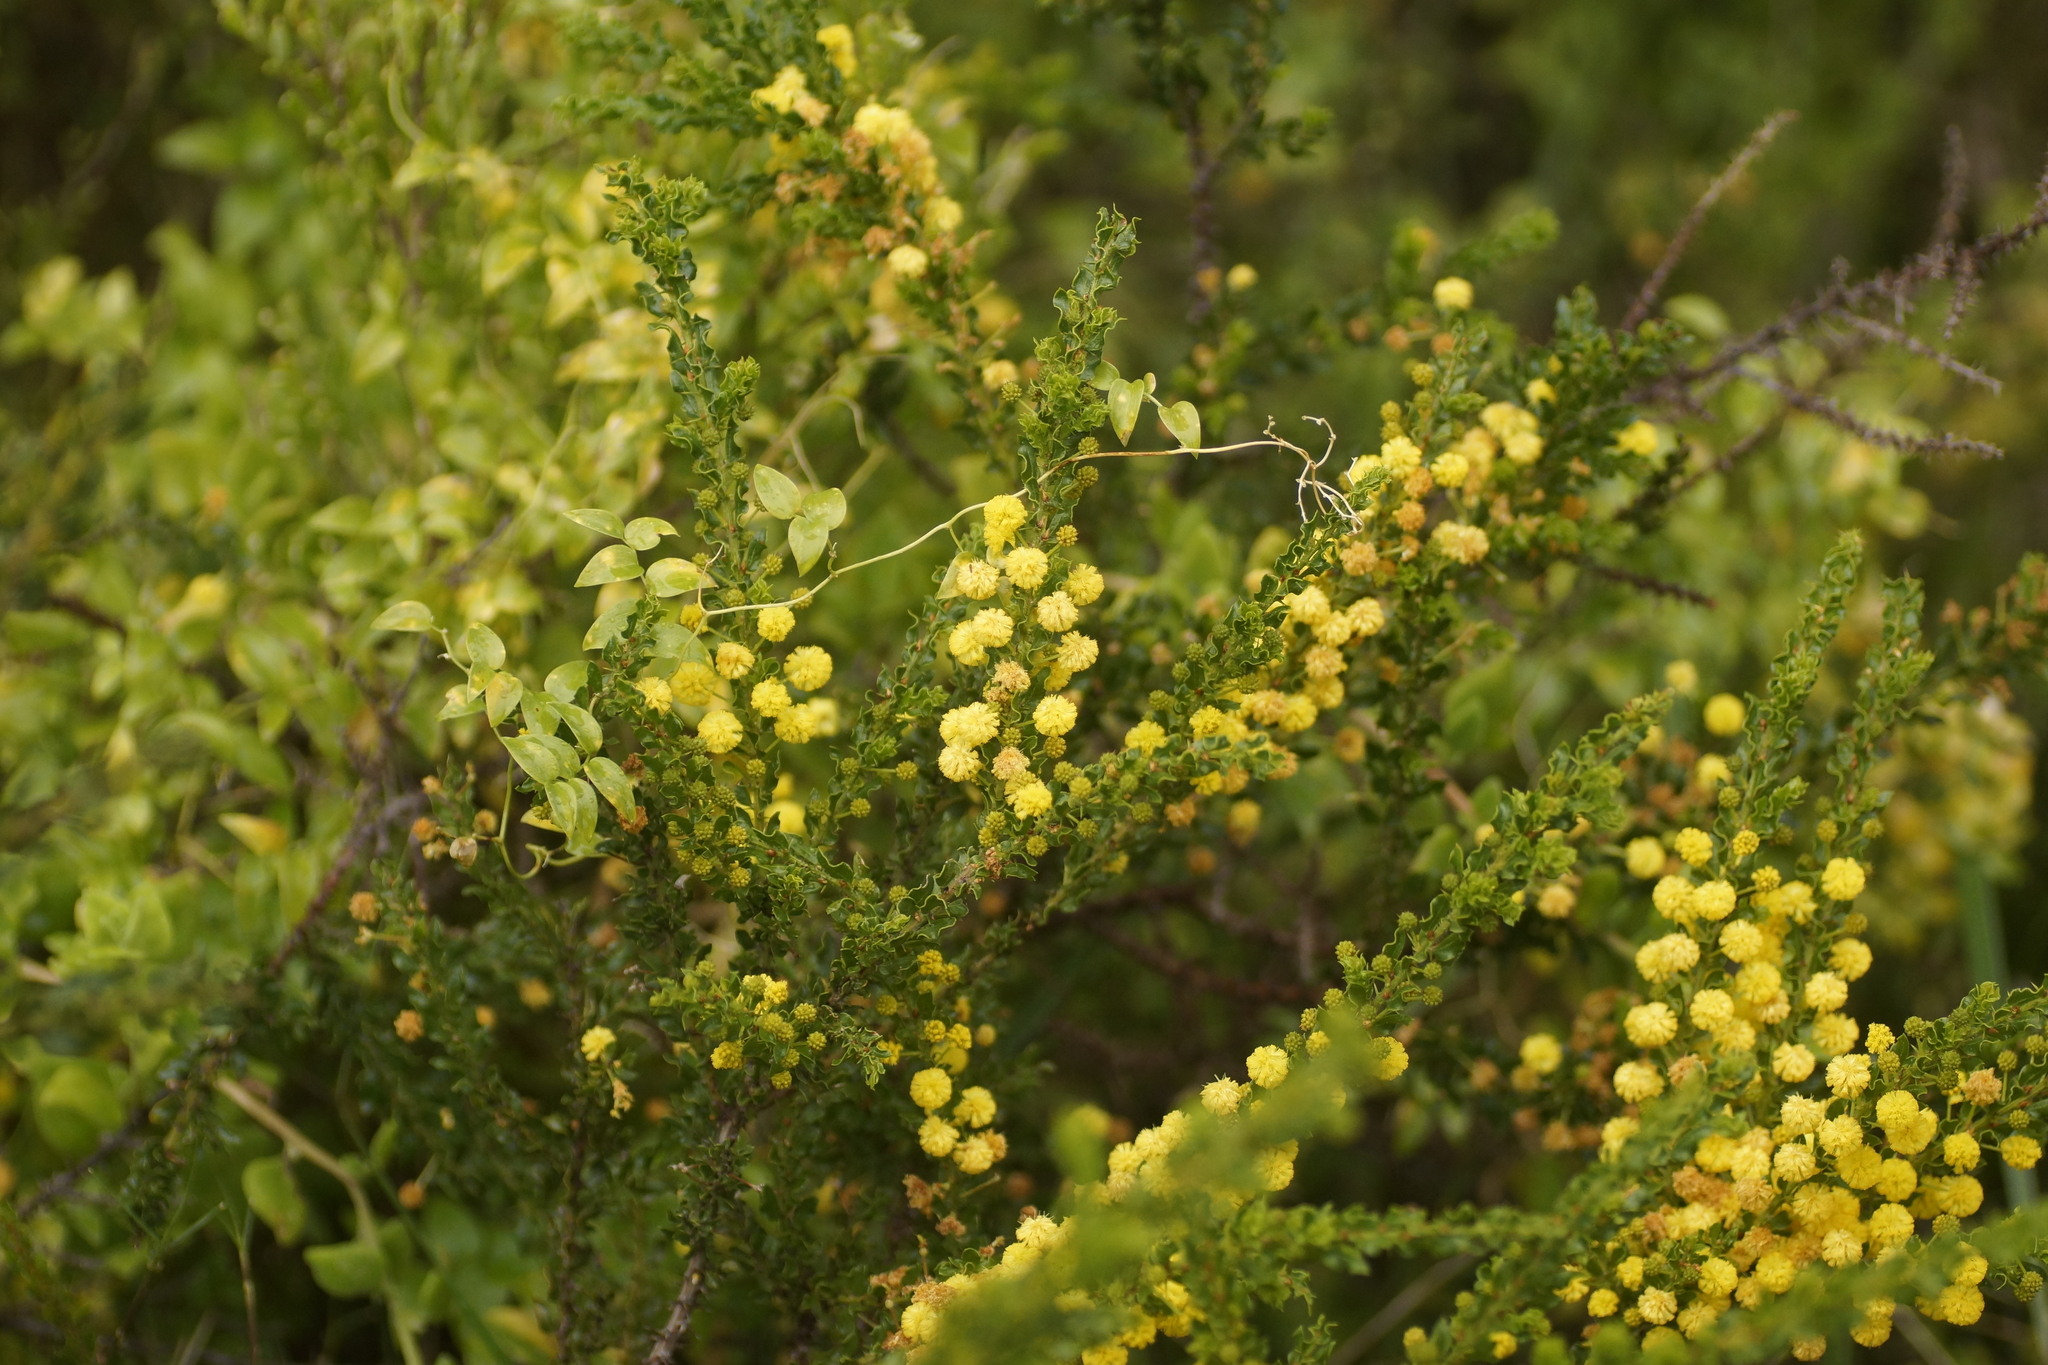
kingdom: Plantae
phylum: Tracheophyta
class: Magnoliopsida
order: Fabales
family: Fabaceae
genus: Acacia
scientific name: Acacia paradoxa
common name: Paradox acacia
